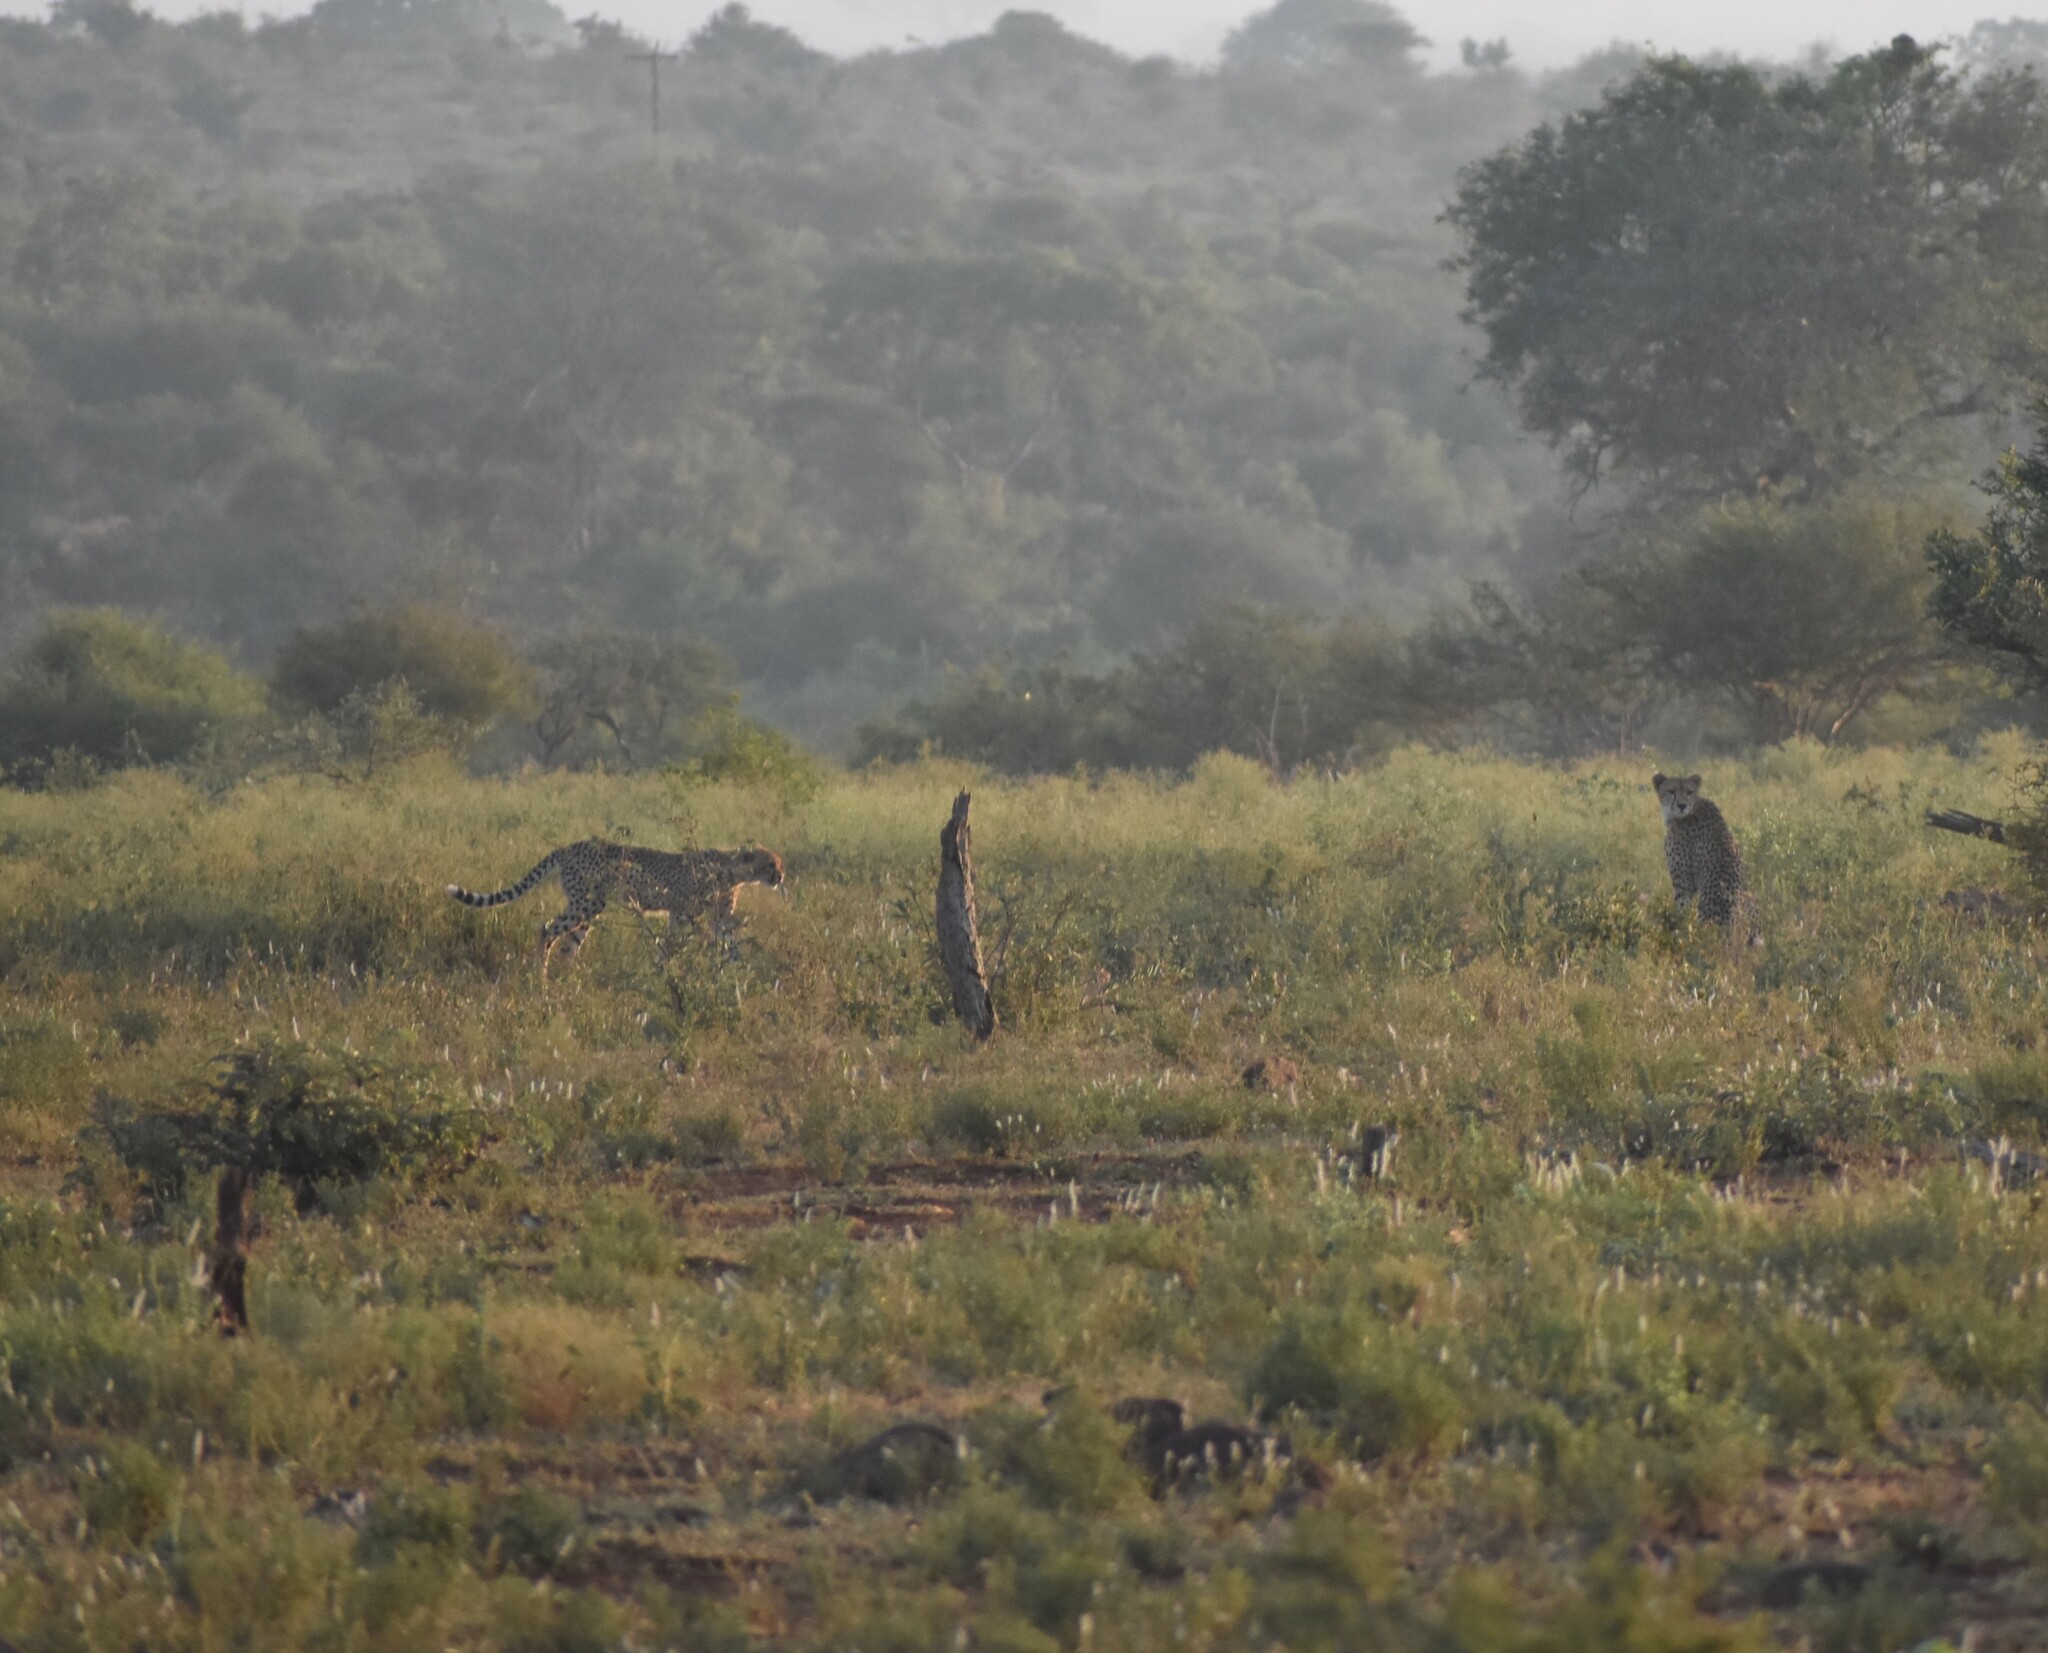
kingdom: Animalia
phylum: Chordata
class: Mammalia
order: Carnivora
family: Felidae
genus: Acinonyx
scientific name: Acinonyx jubatus
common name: Cheetah
